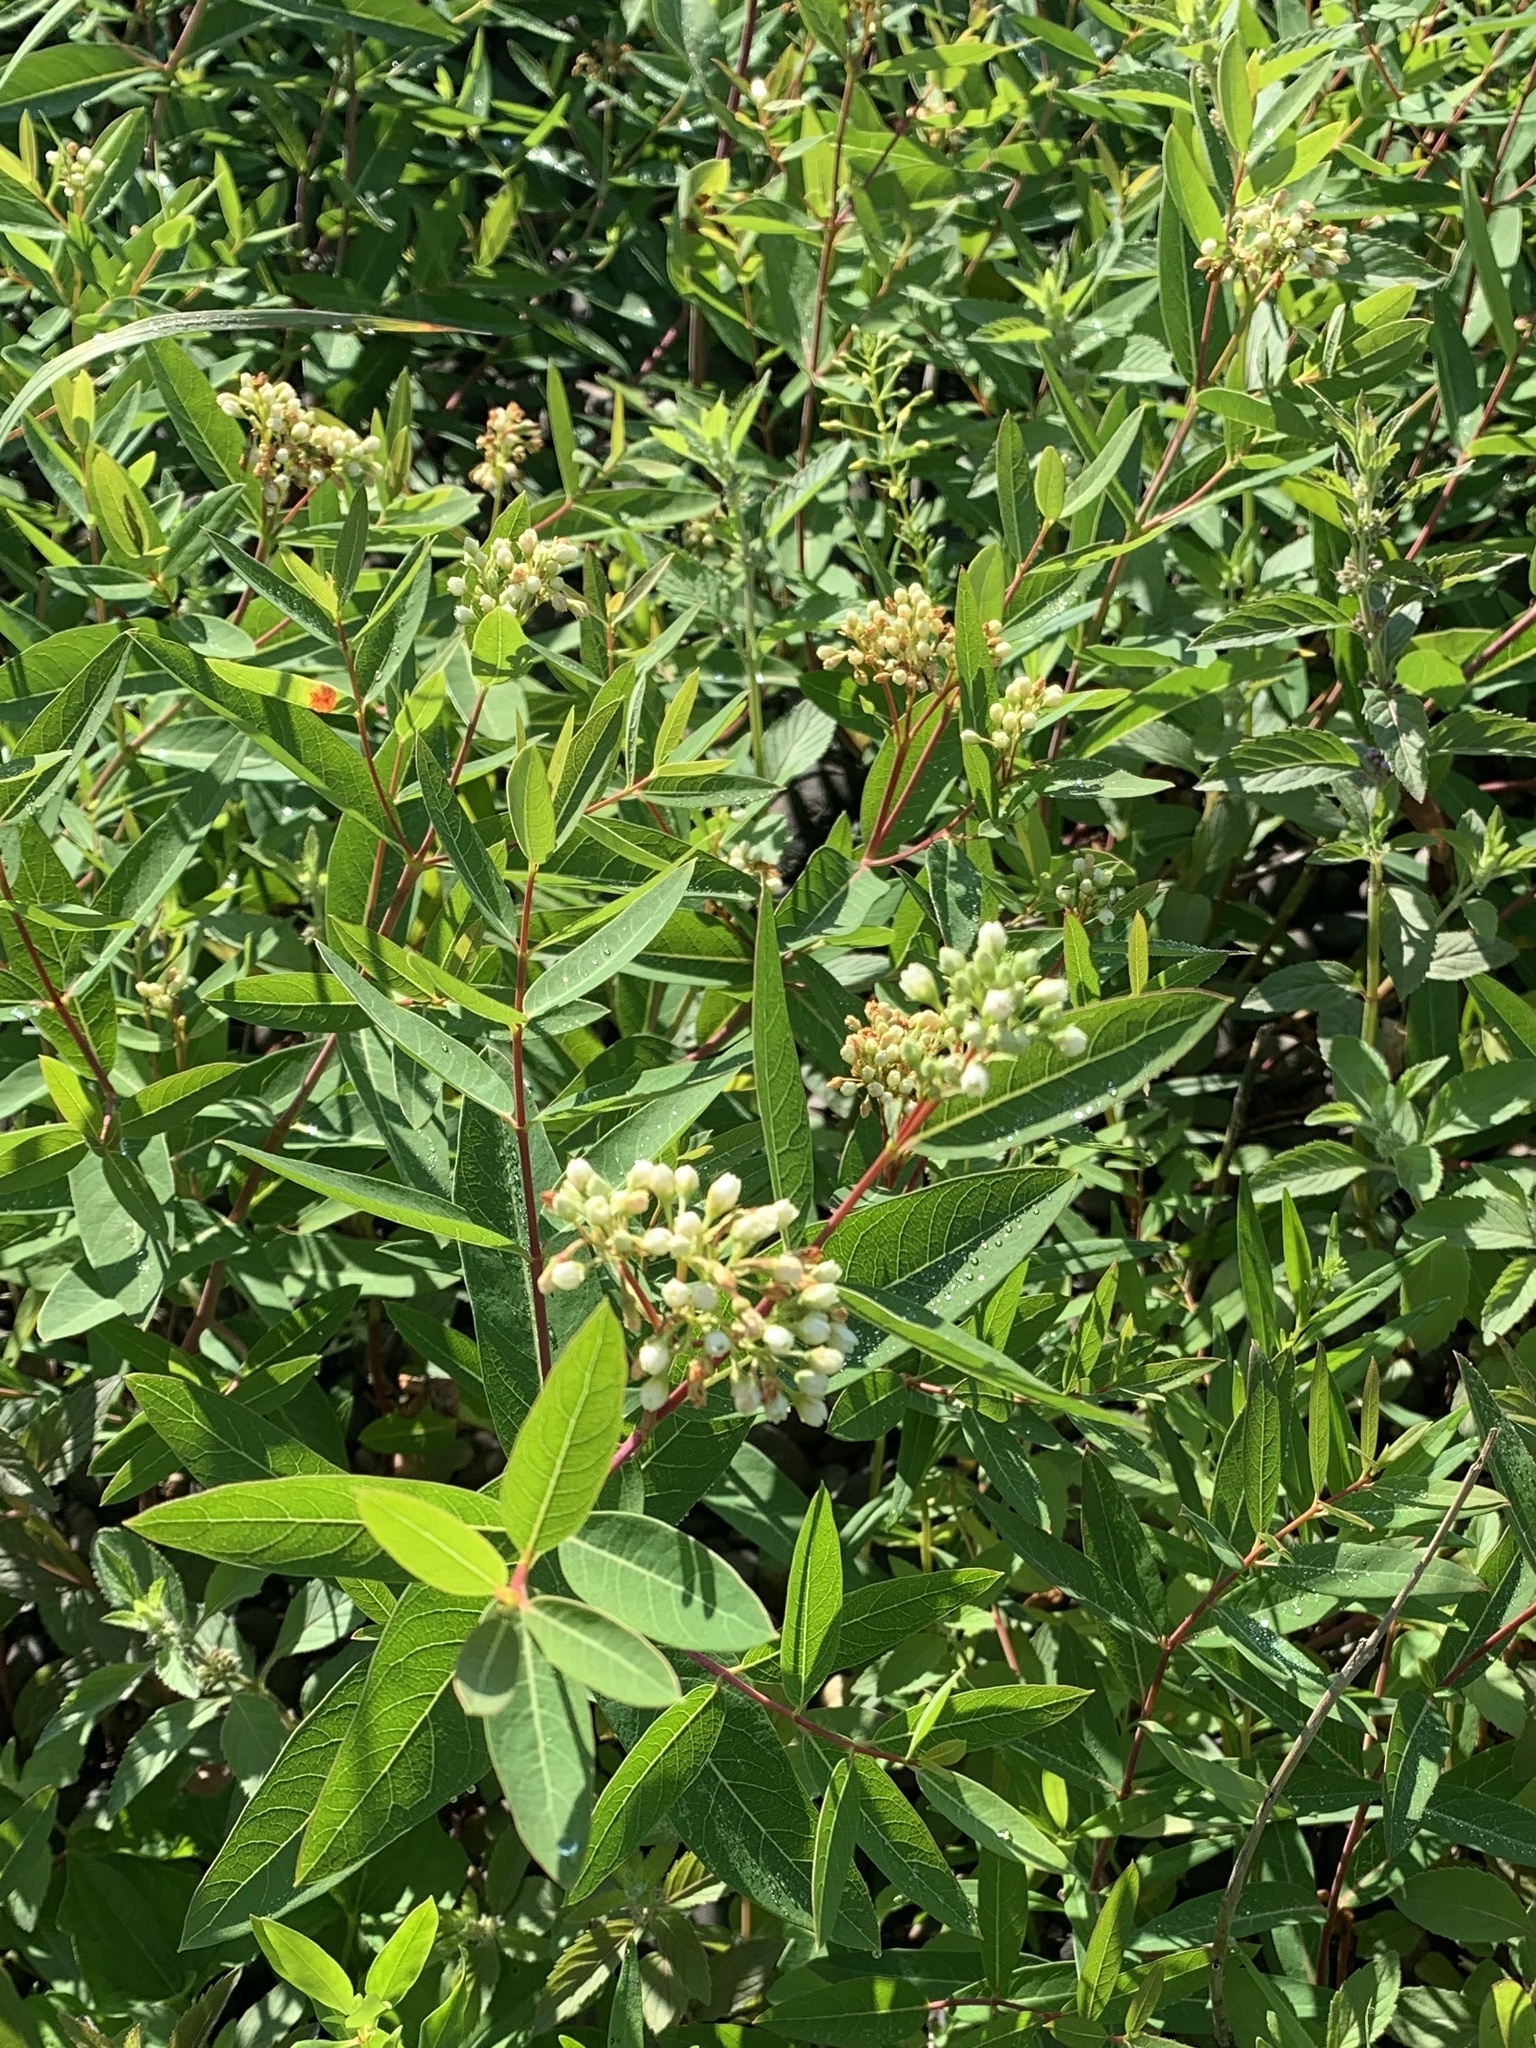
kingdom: Plantae
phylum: Tracheophyta
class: Magnoliopsida
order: Gentianales
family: Apocynaceae
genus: Apocynum
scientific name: Apocynum cannabinum
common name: Hemp dogbane
